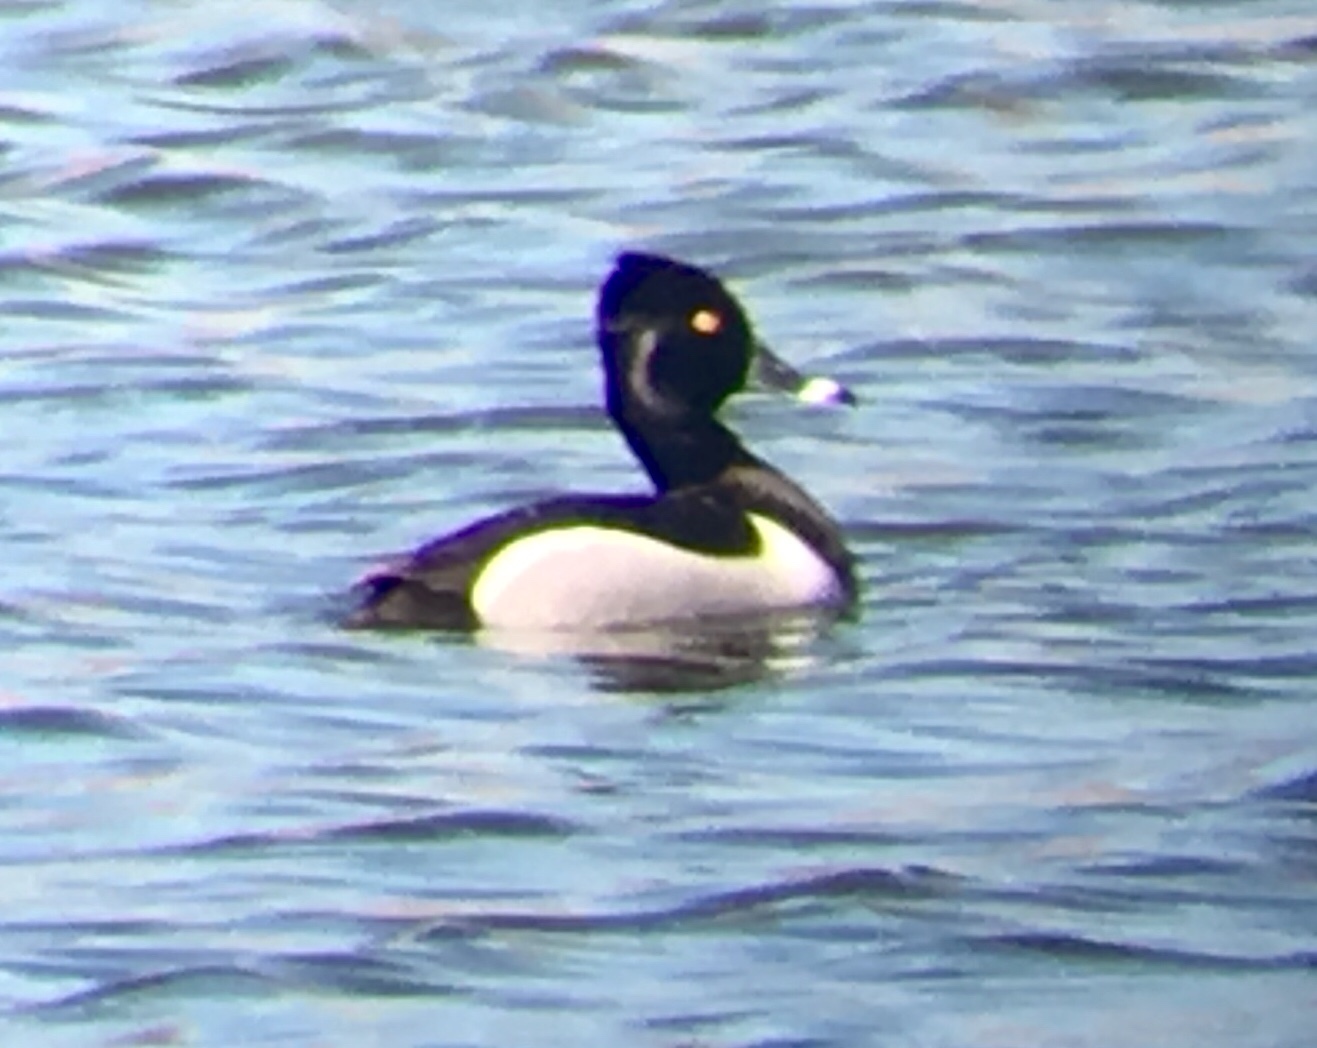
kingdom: Animalia
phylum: Chordata
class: Aves
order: Anseriformes
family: Anatidae
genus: Aythya
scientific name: Aythya collaris
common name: Ring-necked duck
